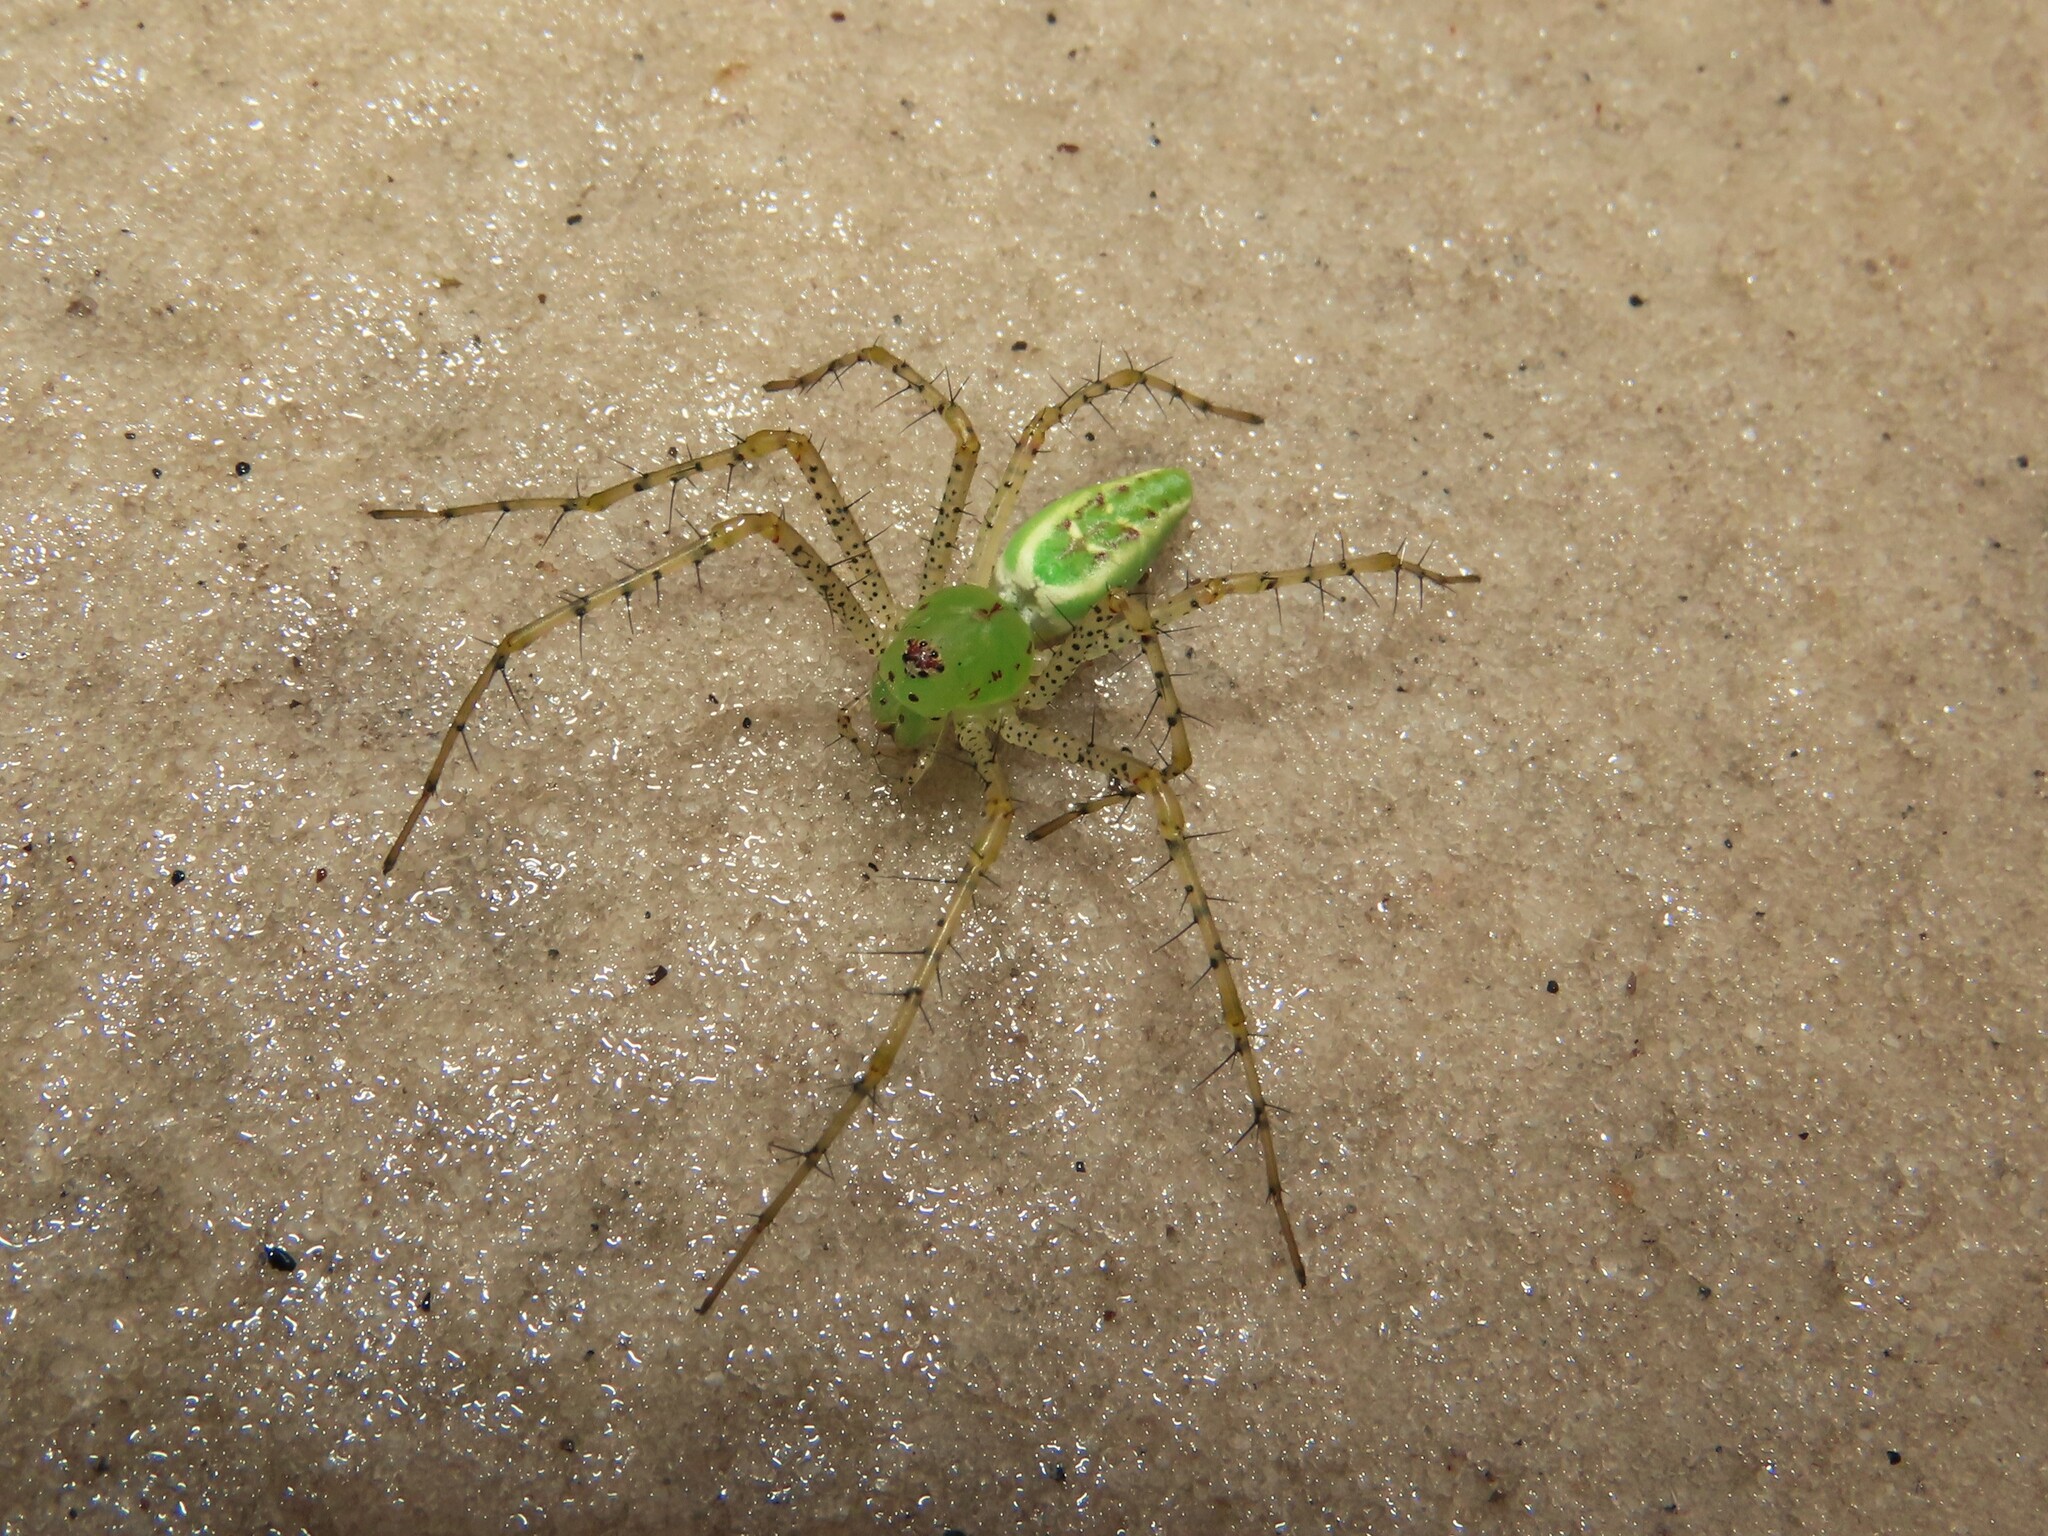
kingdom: Animalia
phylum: Arthropoda
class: Arachnida
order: Araneae
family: Oxyopidae
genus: Peucetia
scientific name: Peucetia viridans
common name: Lynx spiders
